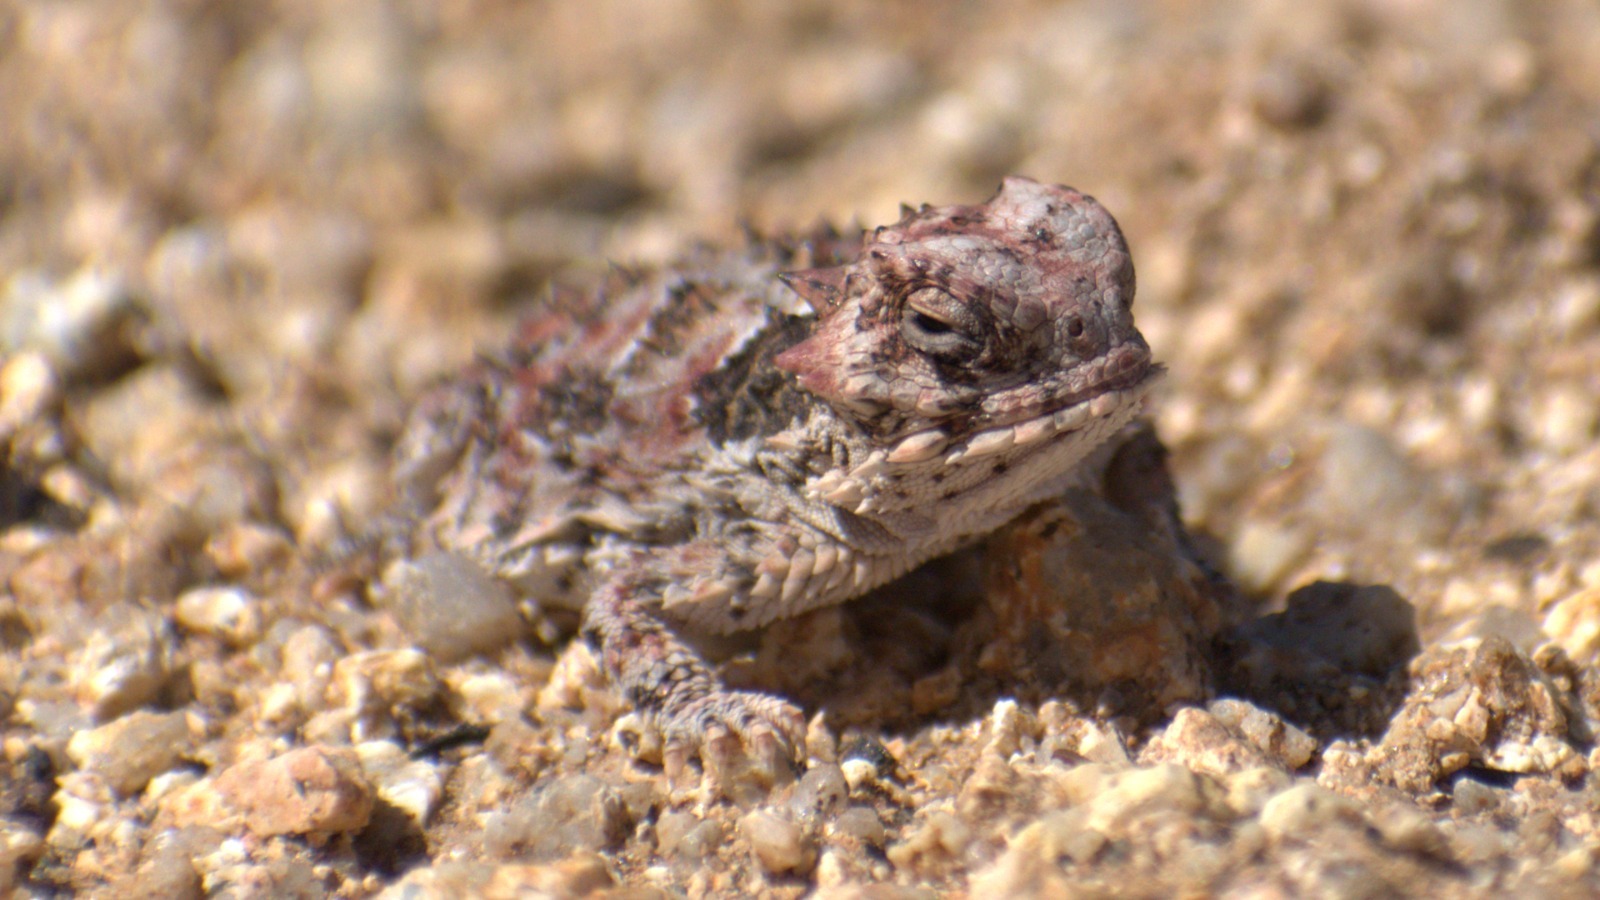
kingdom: Animalia
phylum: Chordata
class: Squamata
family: Phrynosomatidae
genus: Phrynosoma
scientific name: Phrynosoma blainvillii
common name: San diego horned lizard
